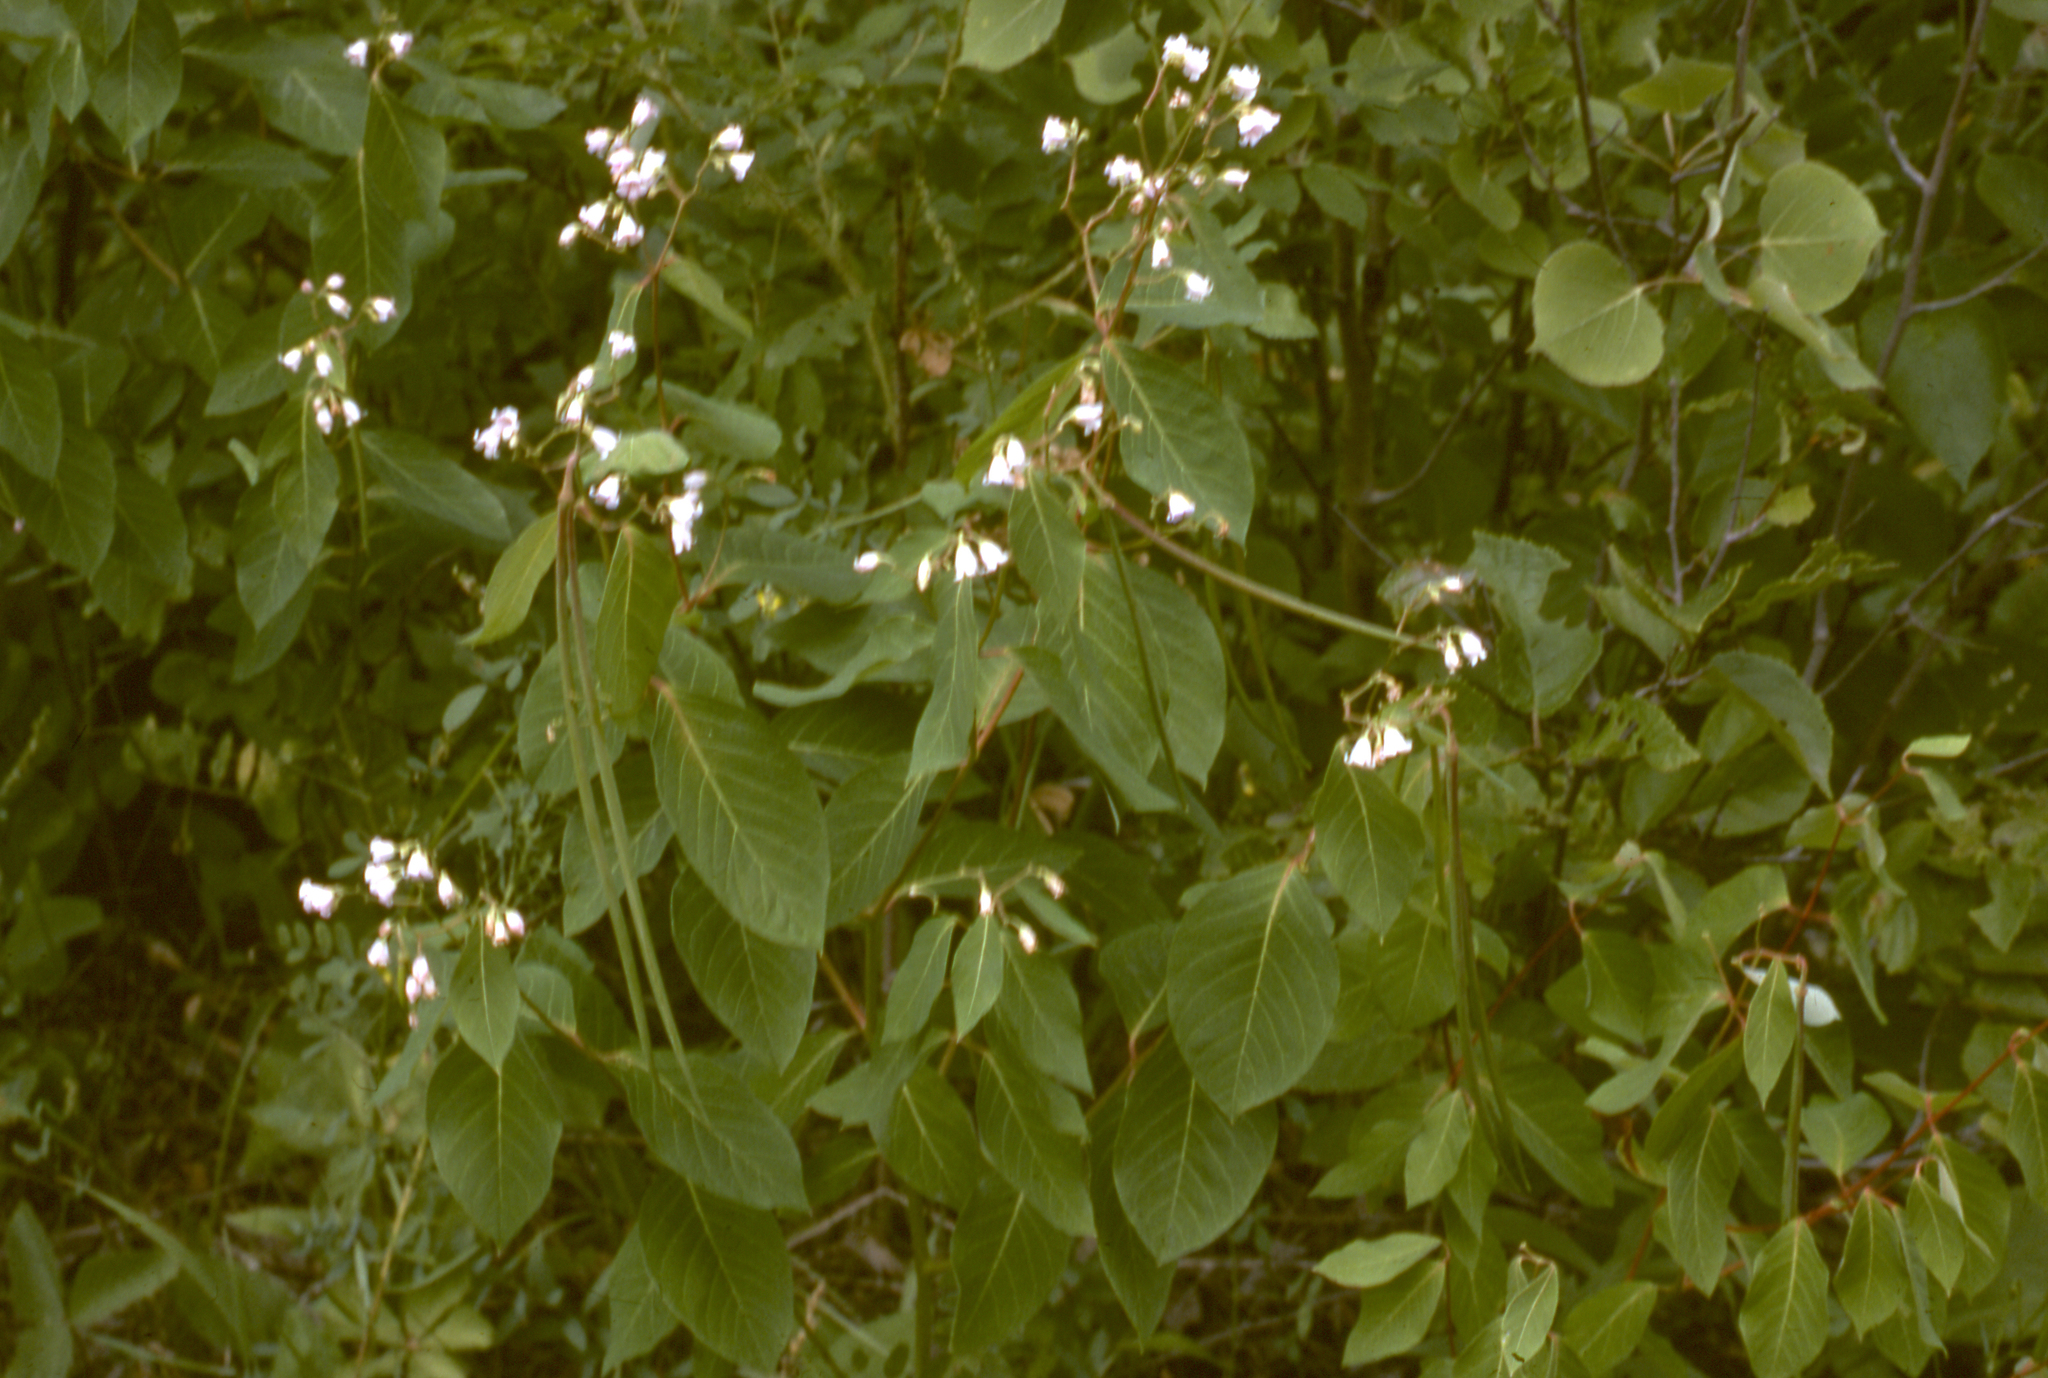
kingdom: Plantae
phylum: Tracheophyta
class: Magnoliopsida
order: Gentianales
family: Apocynaceae
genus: Apocynum
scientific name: Apocynum floribundum
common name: Hybrid dogbane
